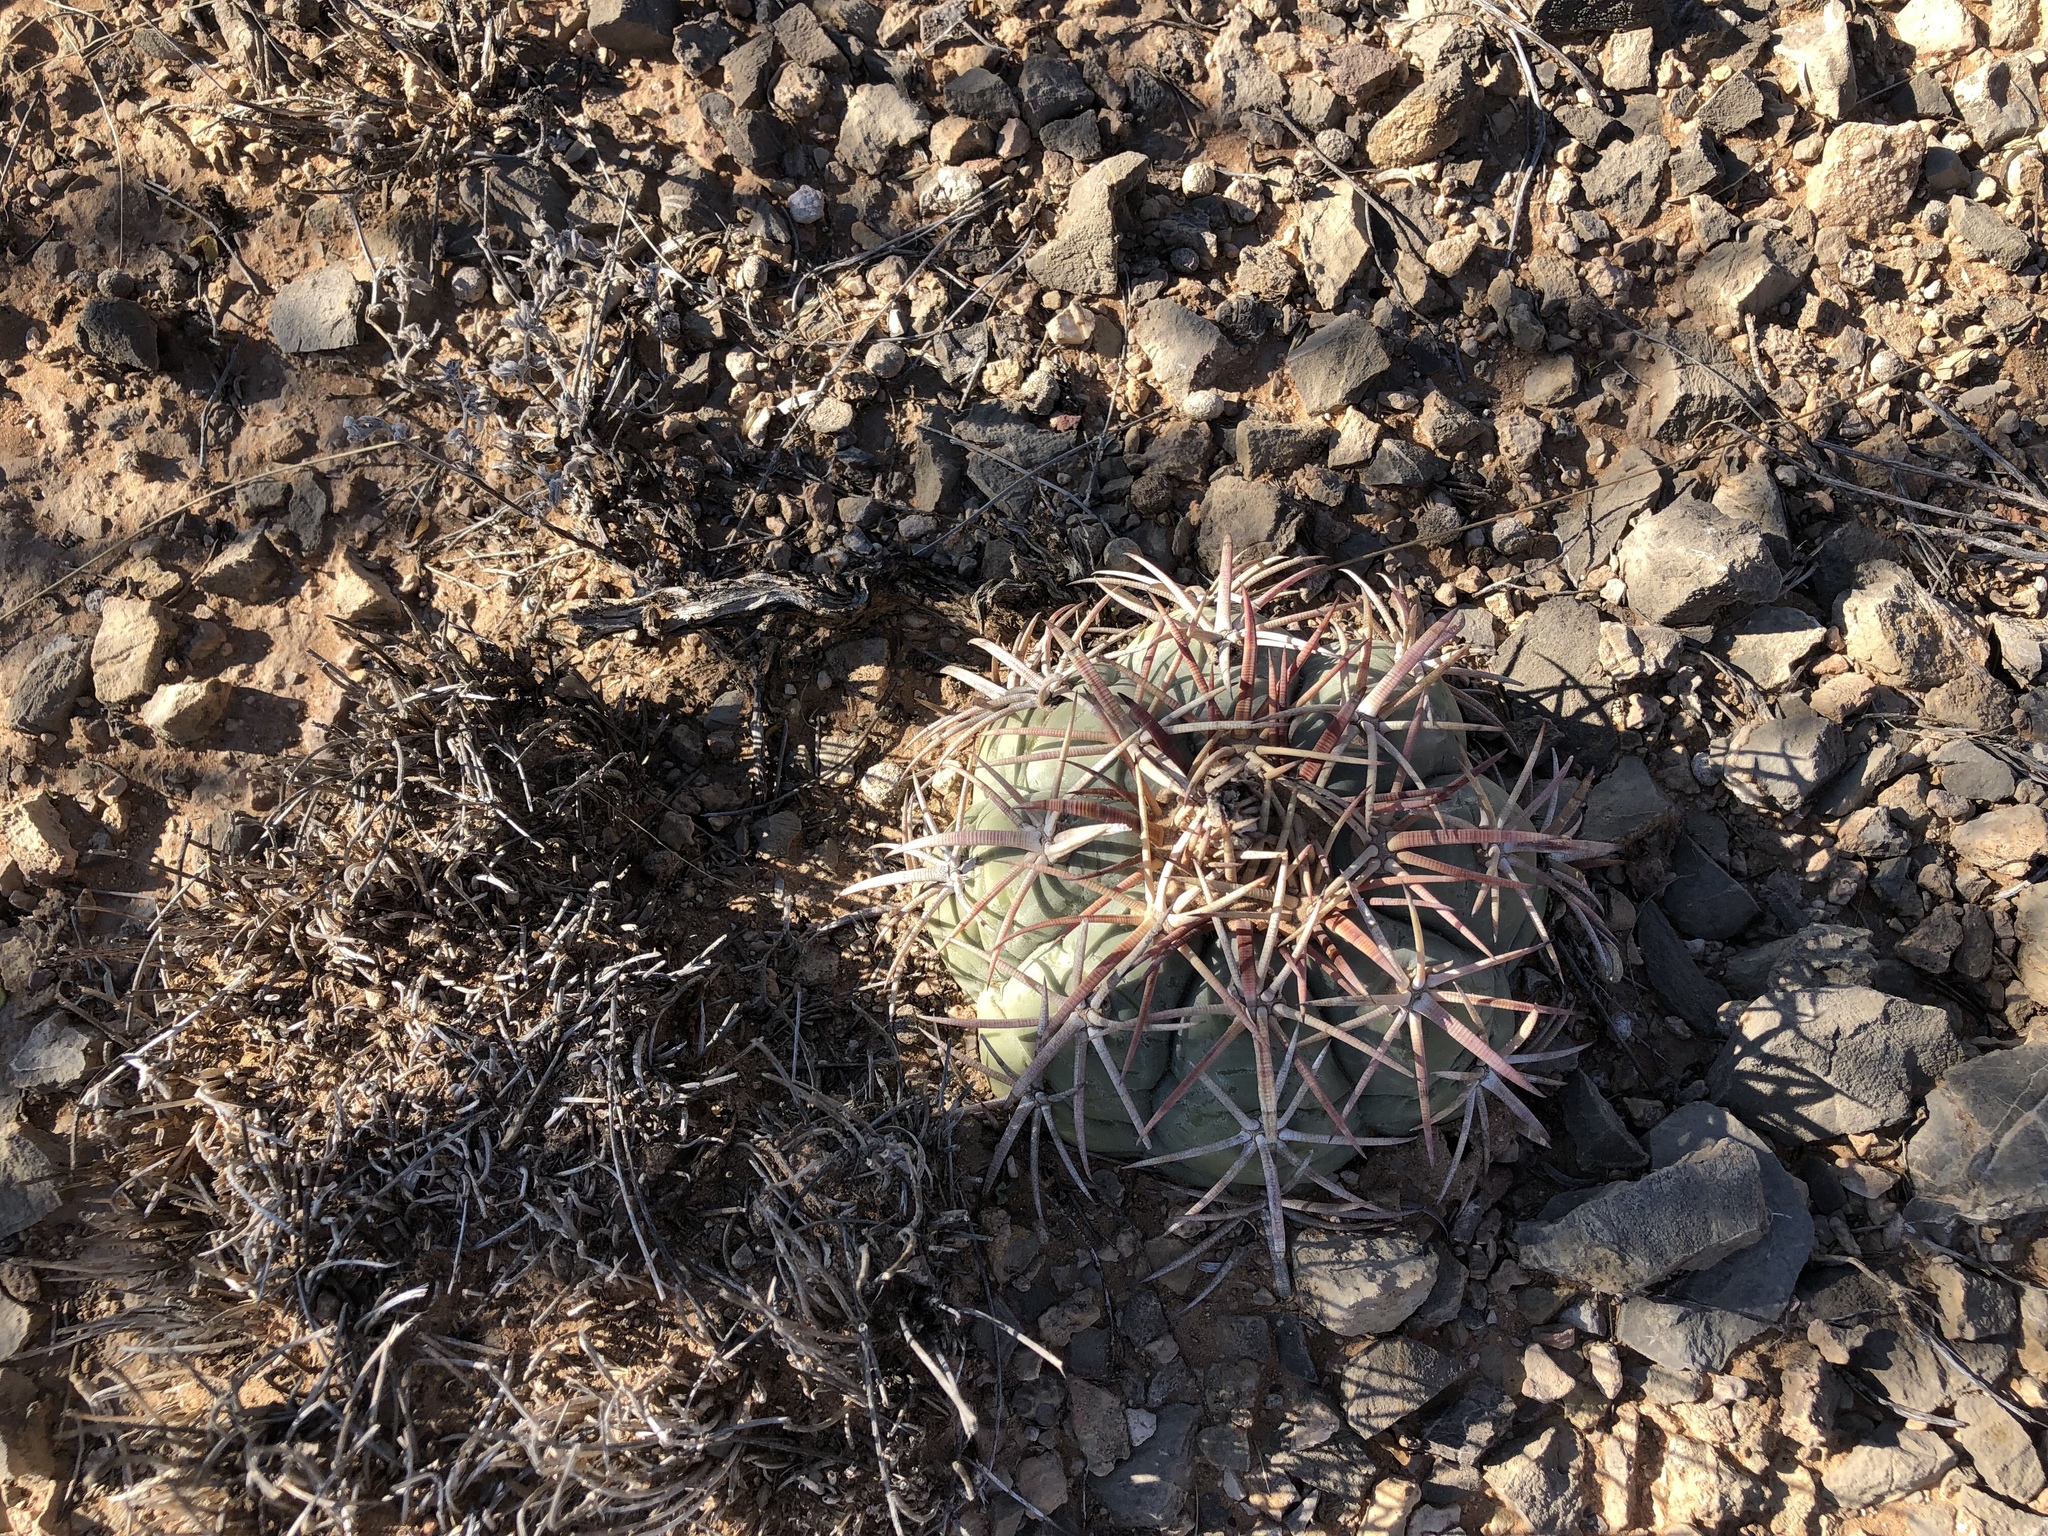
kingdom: Plantae
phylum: Tracheophyta
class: Magnoliopsida
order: Caryophyllales
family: Cactaceae
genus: Echinocactus
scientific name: Echinocactus horizonthalonius
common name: Devilshead
